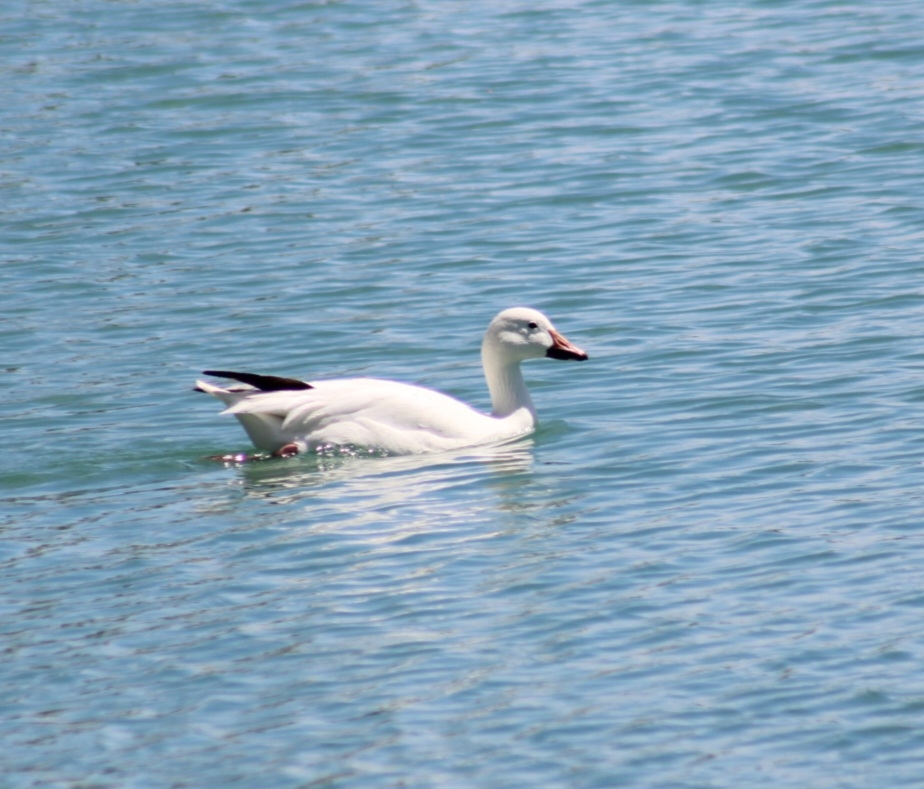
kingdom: Animalia
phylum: Chordata
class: Aves
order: Anseriformes
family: Anatidae
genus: Anser
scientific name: Anser caerulescens
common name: Snow goose
